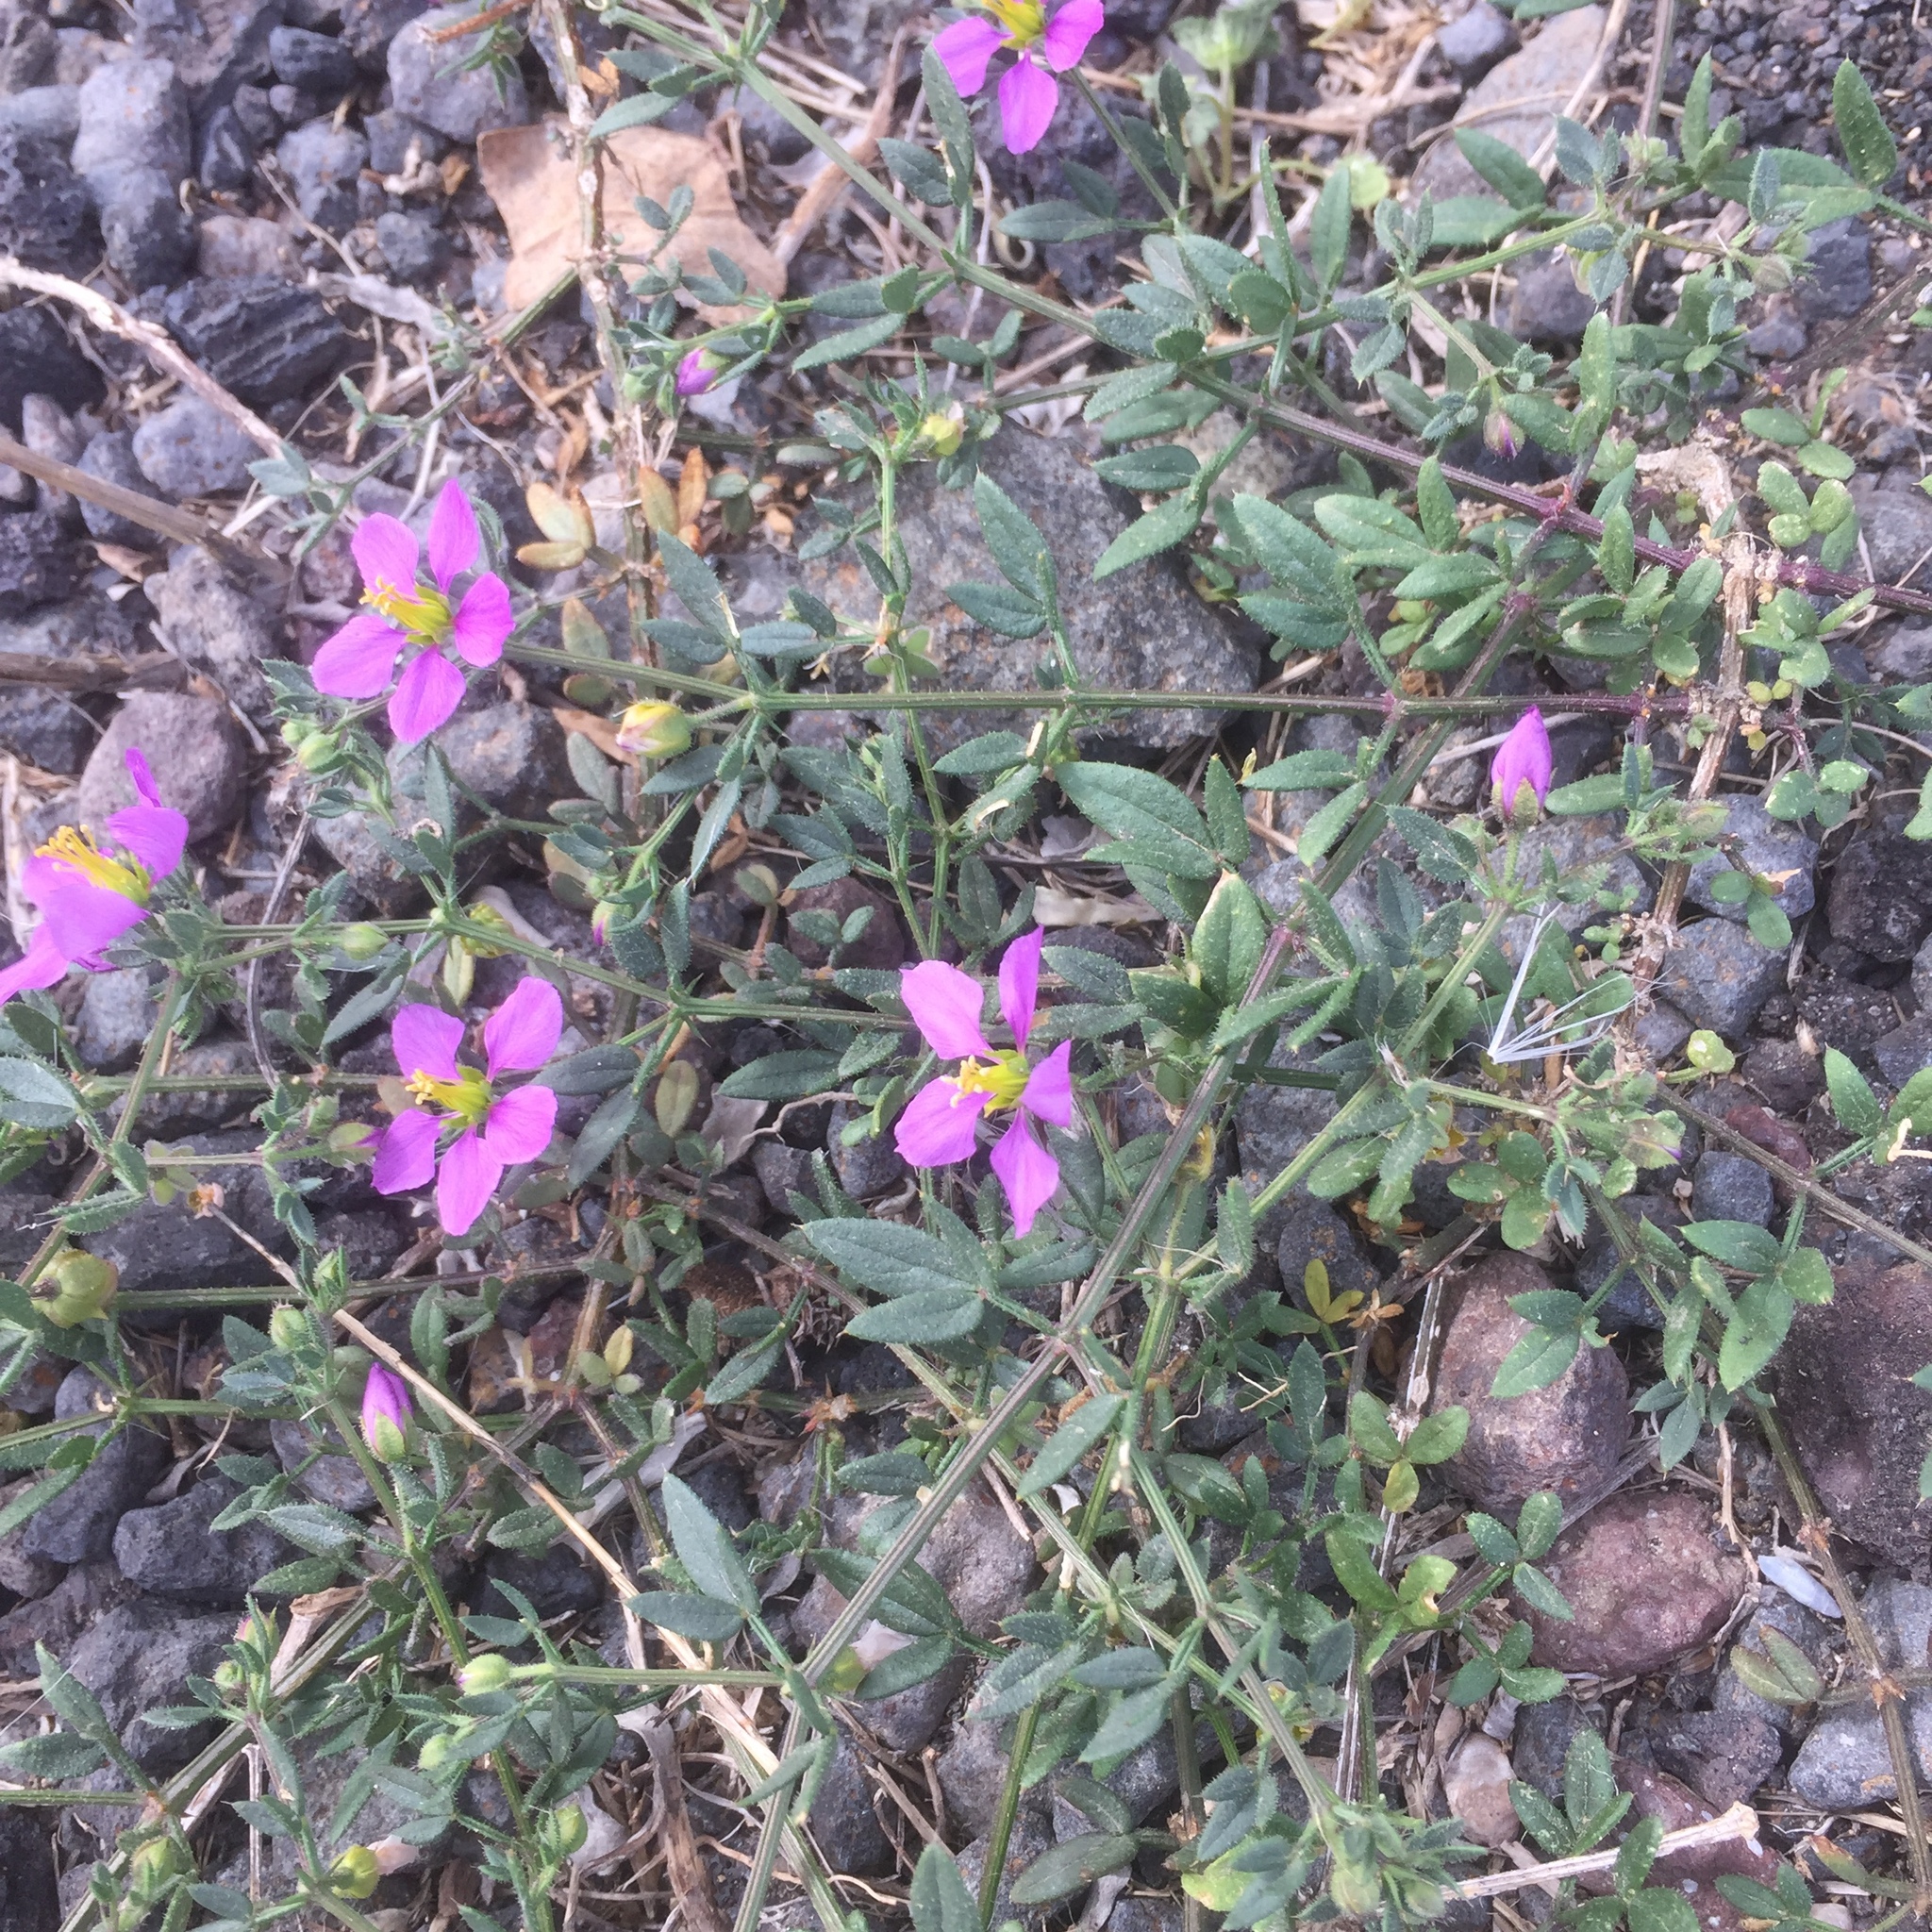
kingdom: Plantae
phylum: Tracheophyta
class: Magnoliopsida
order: Zygophyllales
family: Zygophyllaceae
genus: Fagonia
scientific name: Fagonia cretica
